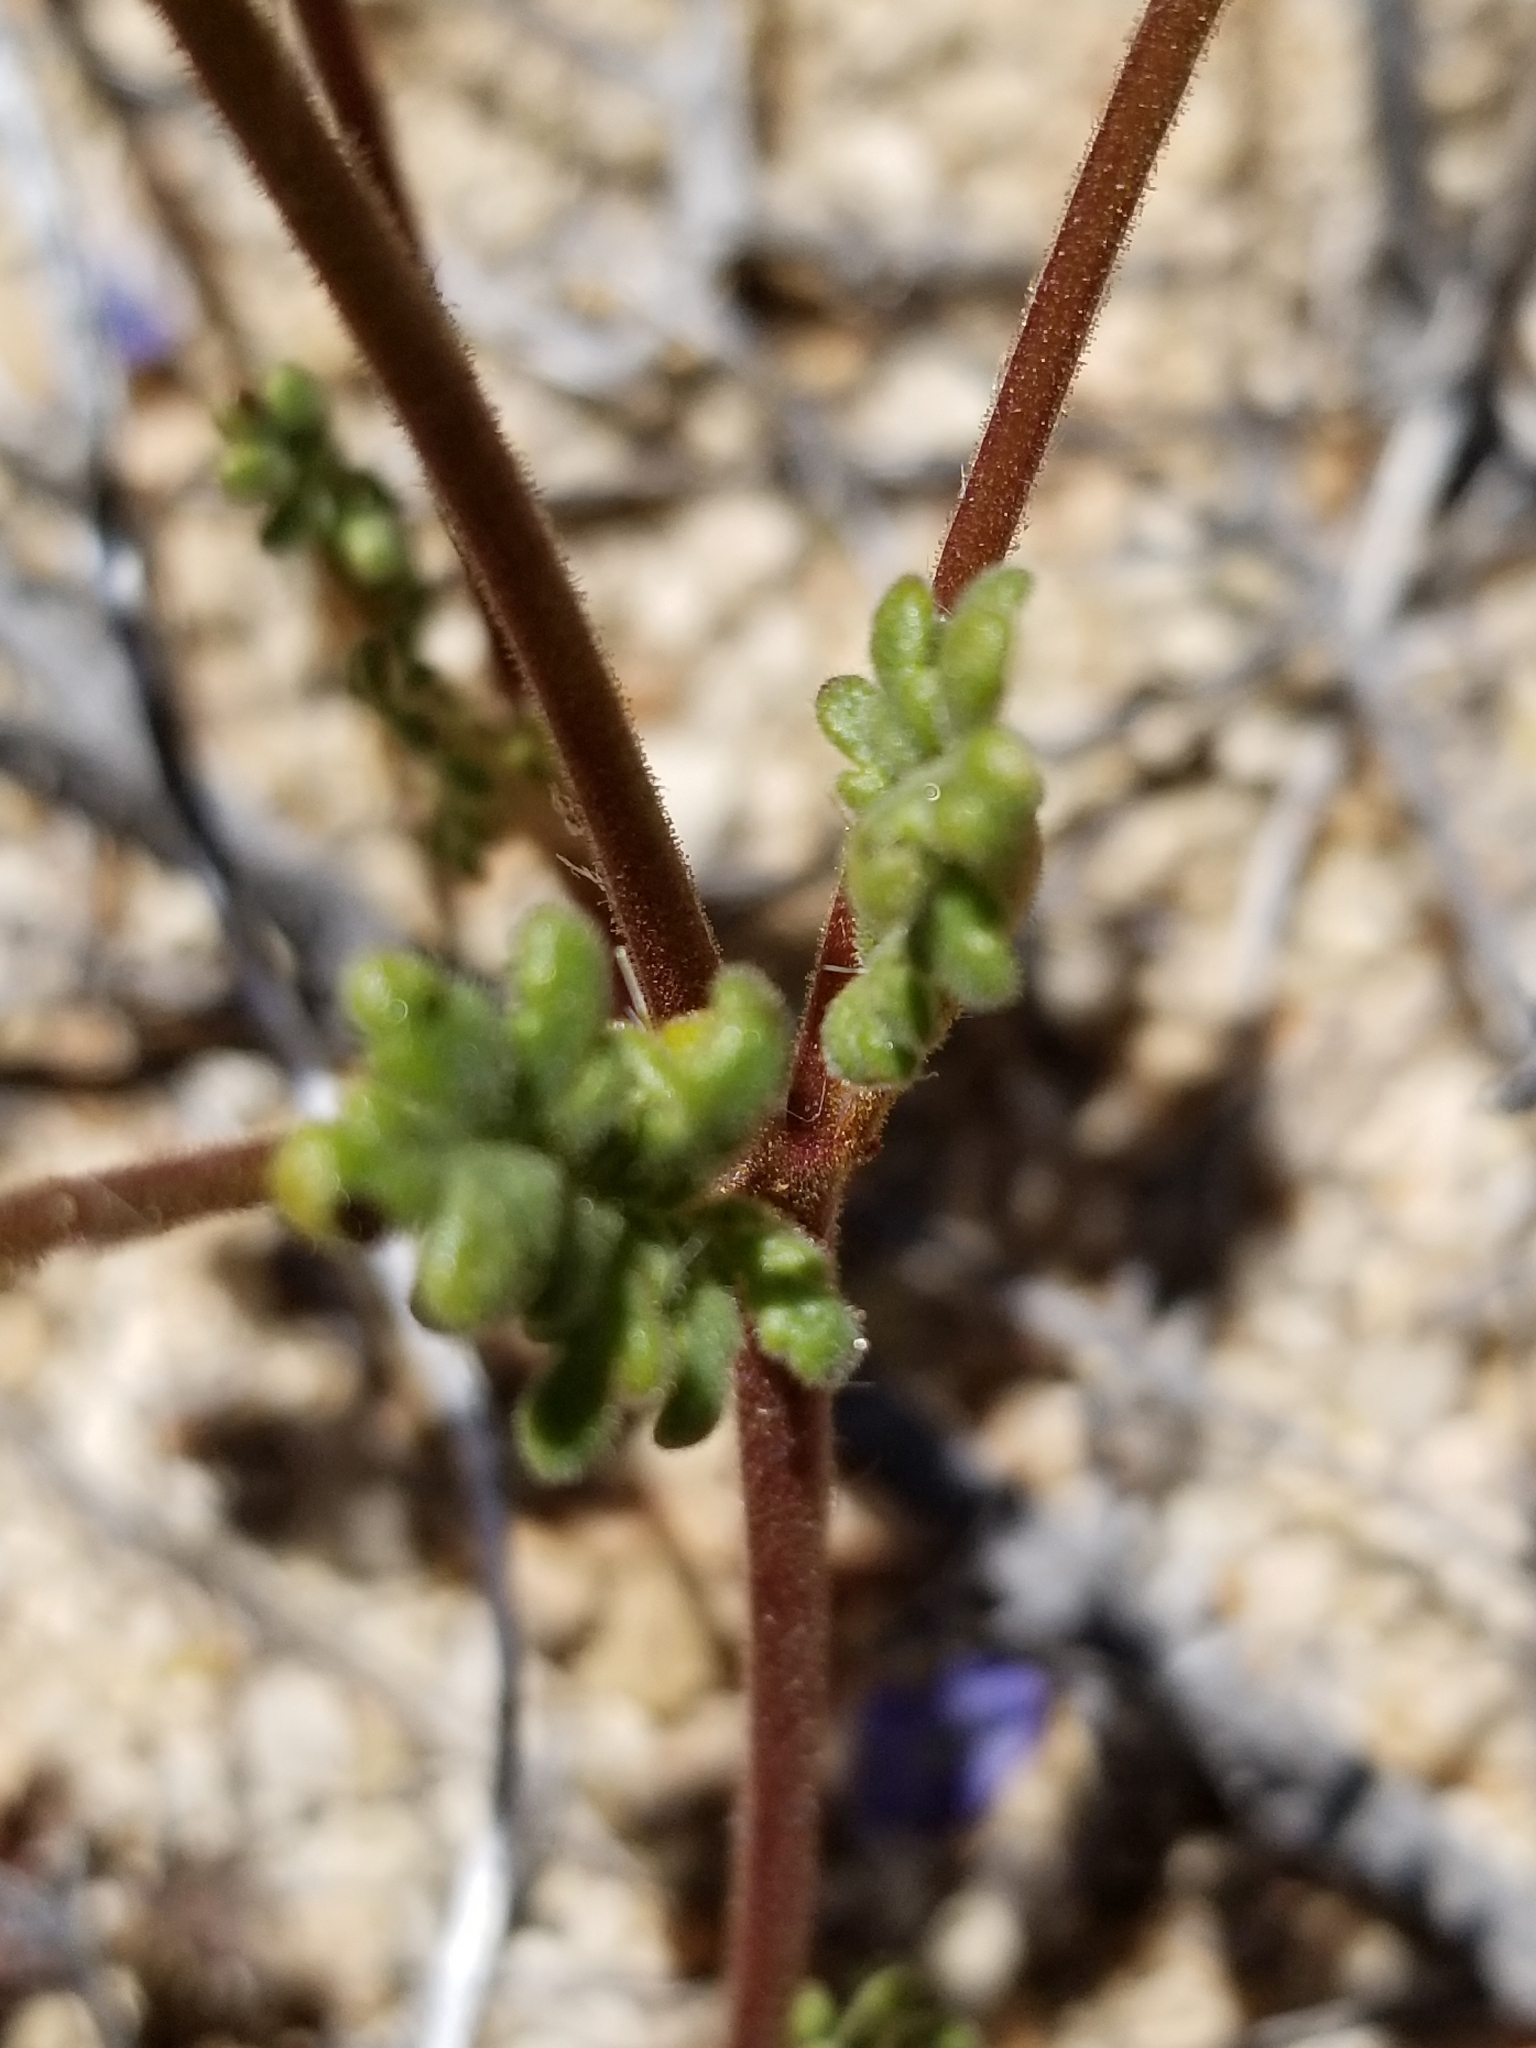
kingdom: Plantae
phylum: Tracheophyta
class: Magnoliopsida
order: Boraginales
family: Hydrophyllaceae
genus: Phacelia
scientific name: Phacelia fremontii
